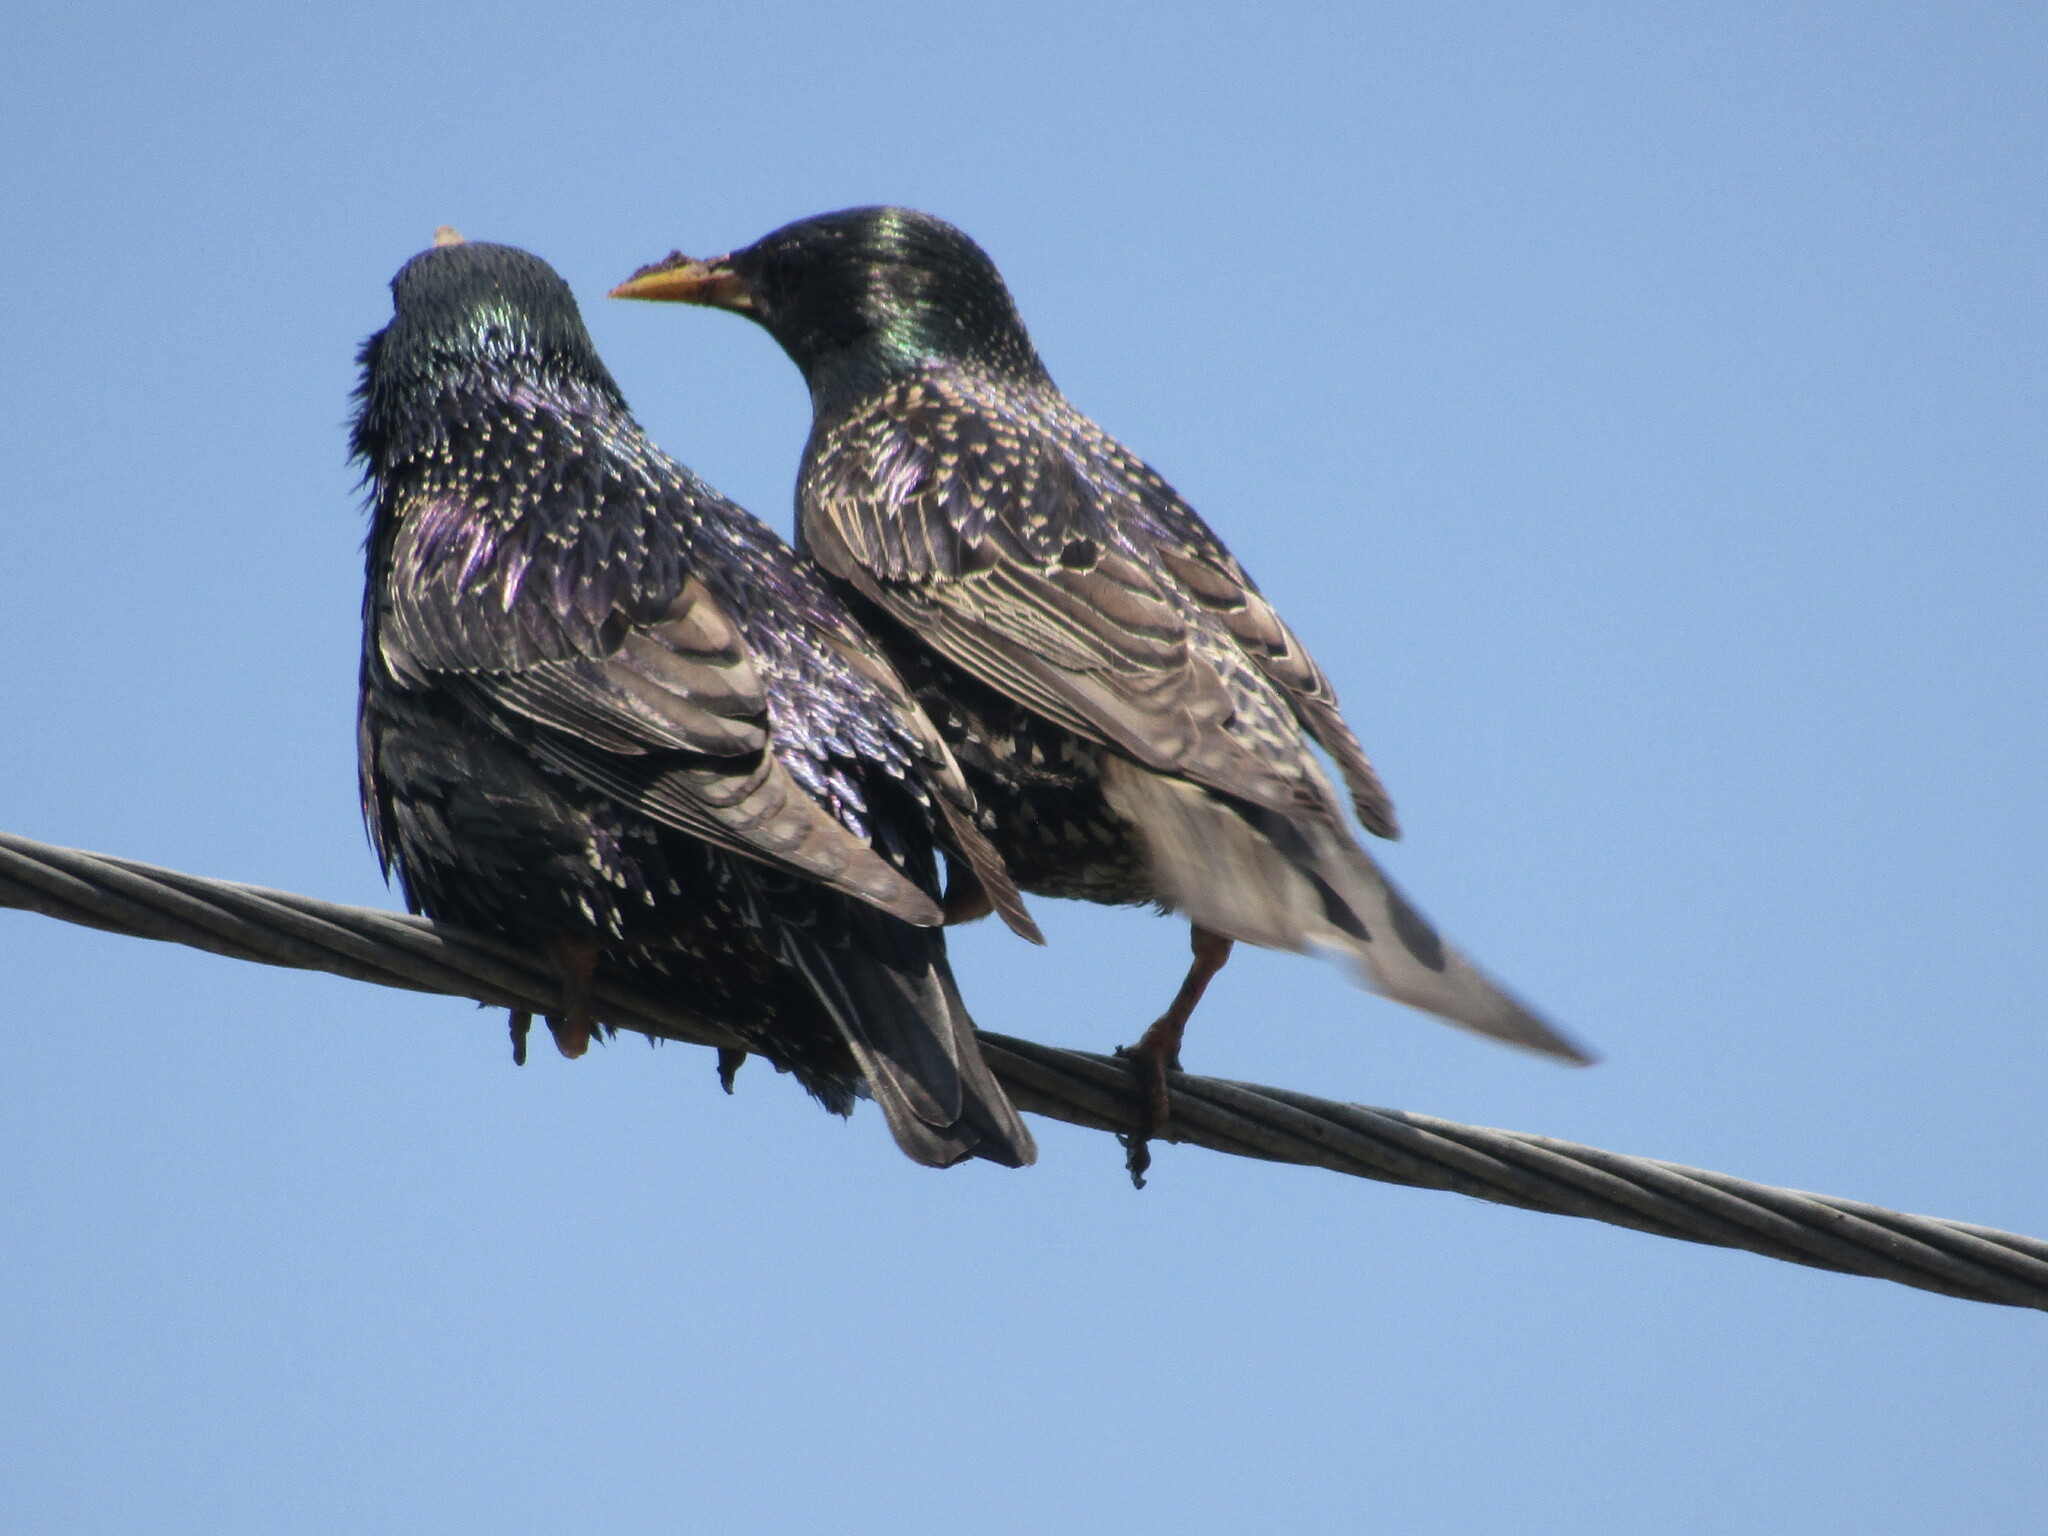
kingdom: Animalia
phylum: Chordata
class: Aves
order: Passeriformes
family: Sturnidae
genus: Sturnus
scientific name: Sturnus vulgaris
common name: Common starling
